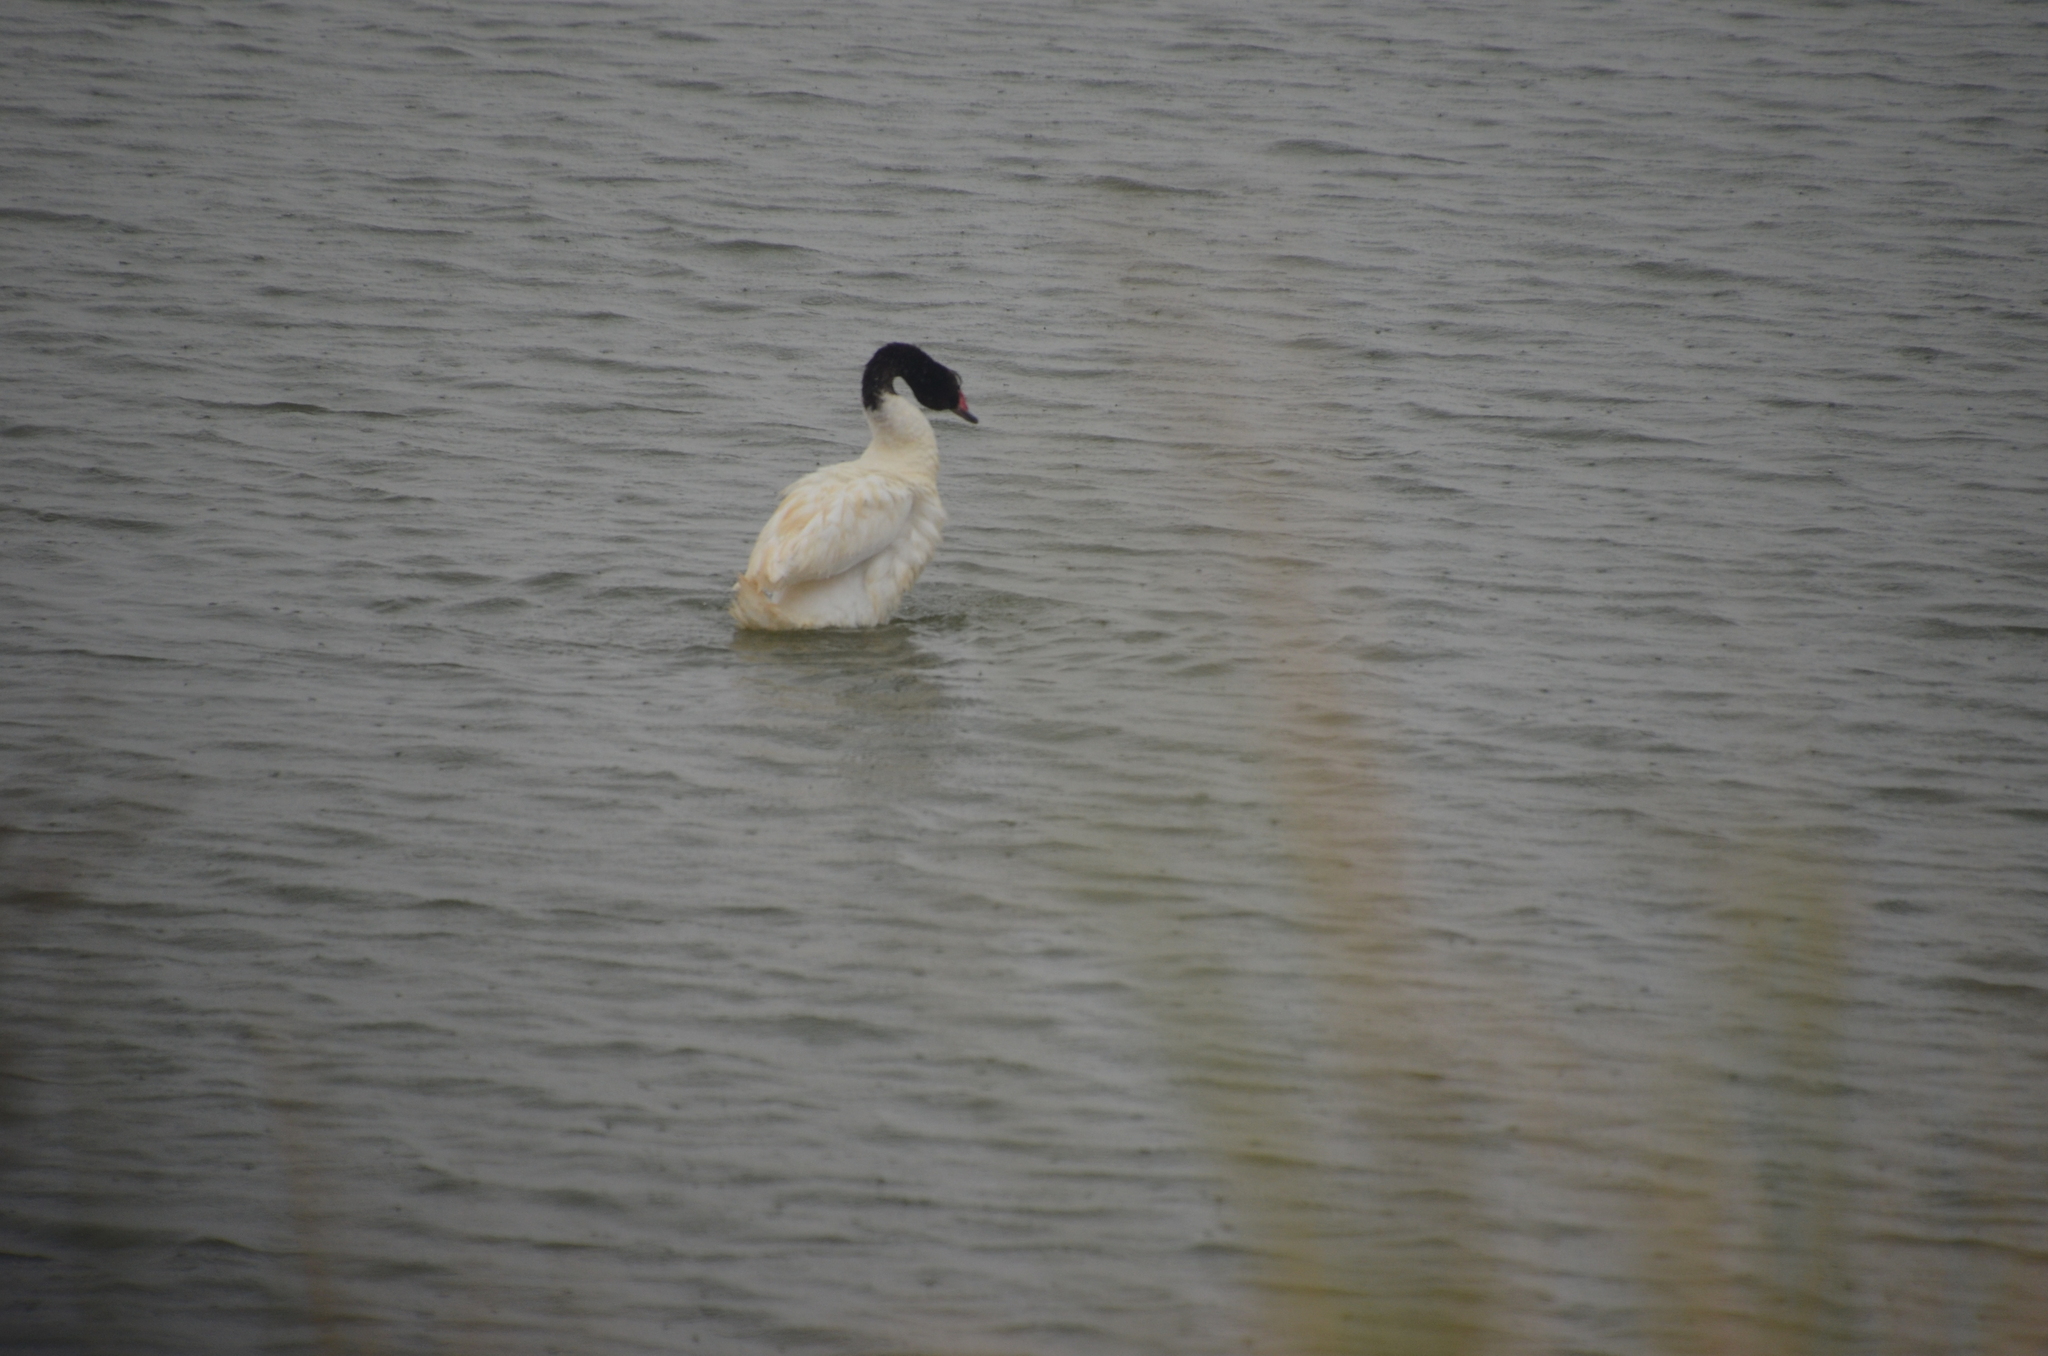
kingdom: Animalia
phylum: Chordata
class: Aves
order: Anseriformes
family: Anatidae
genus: Cygnus
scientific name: Cygnus melancoryphus
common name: Black-necked swan
